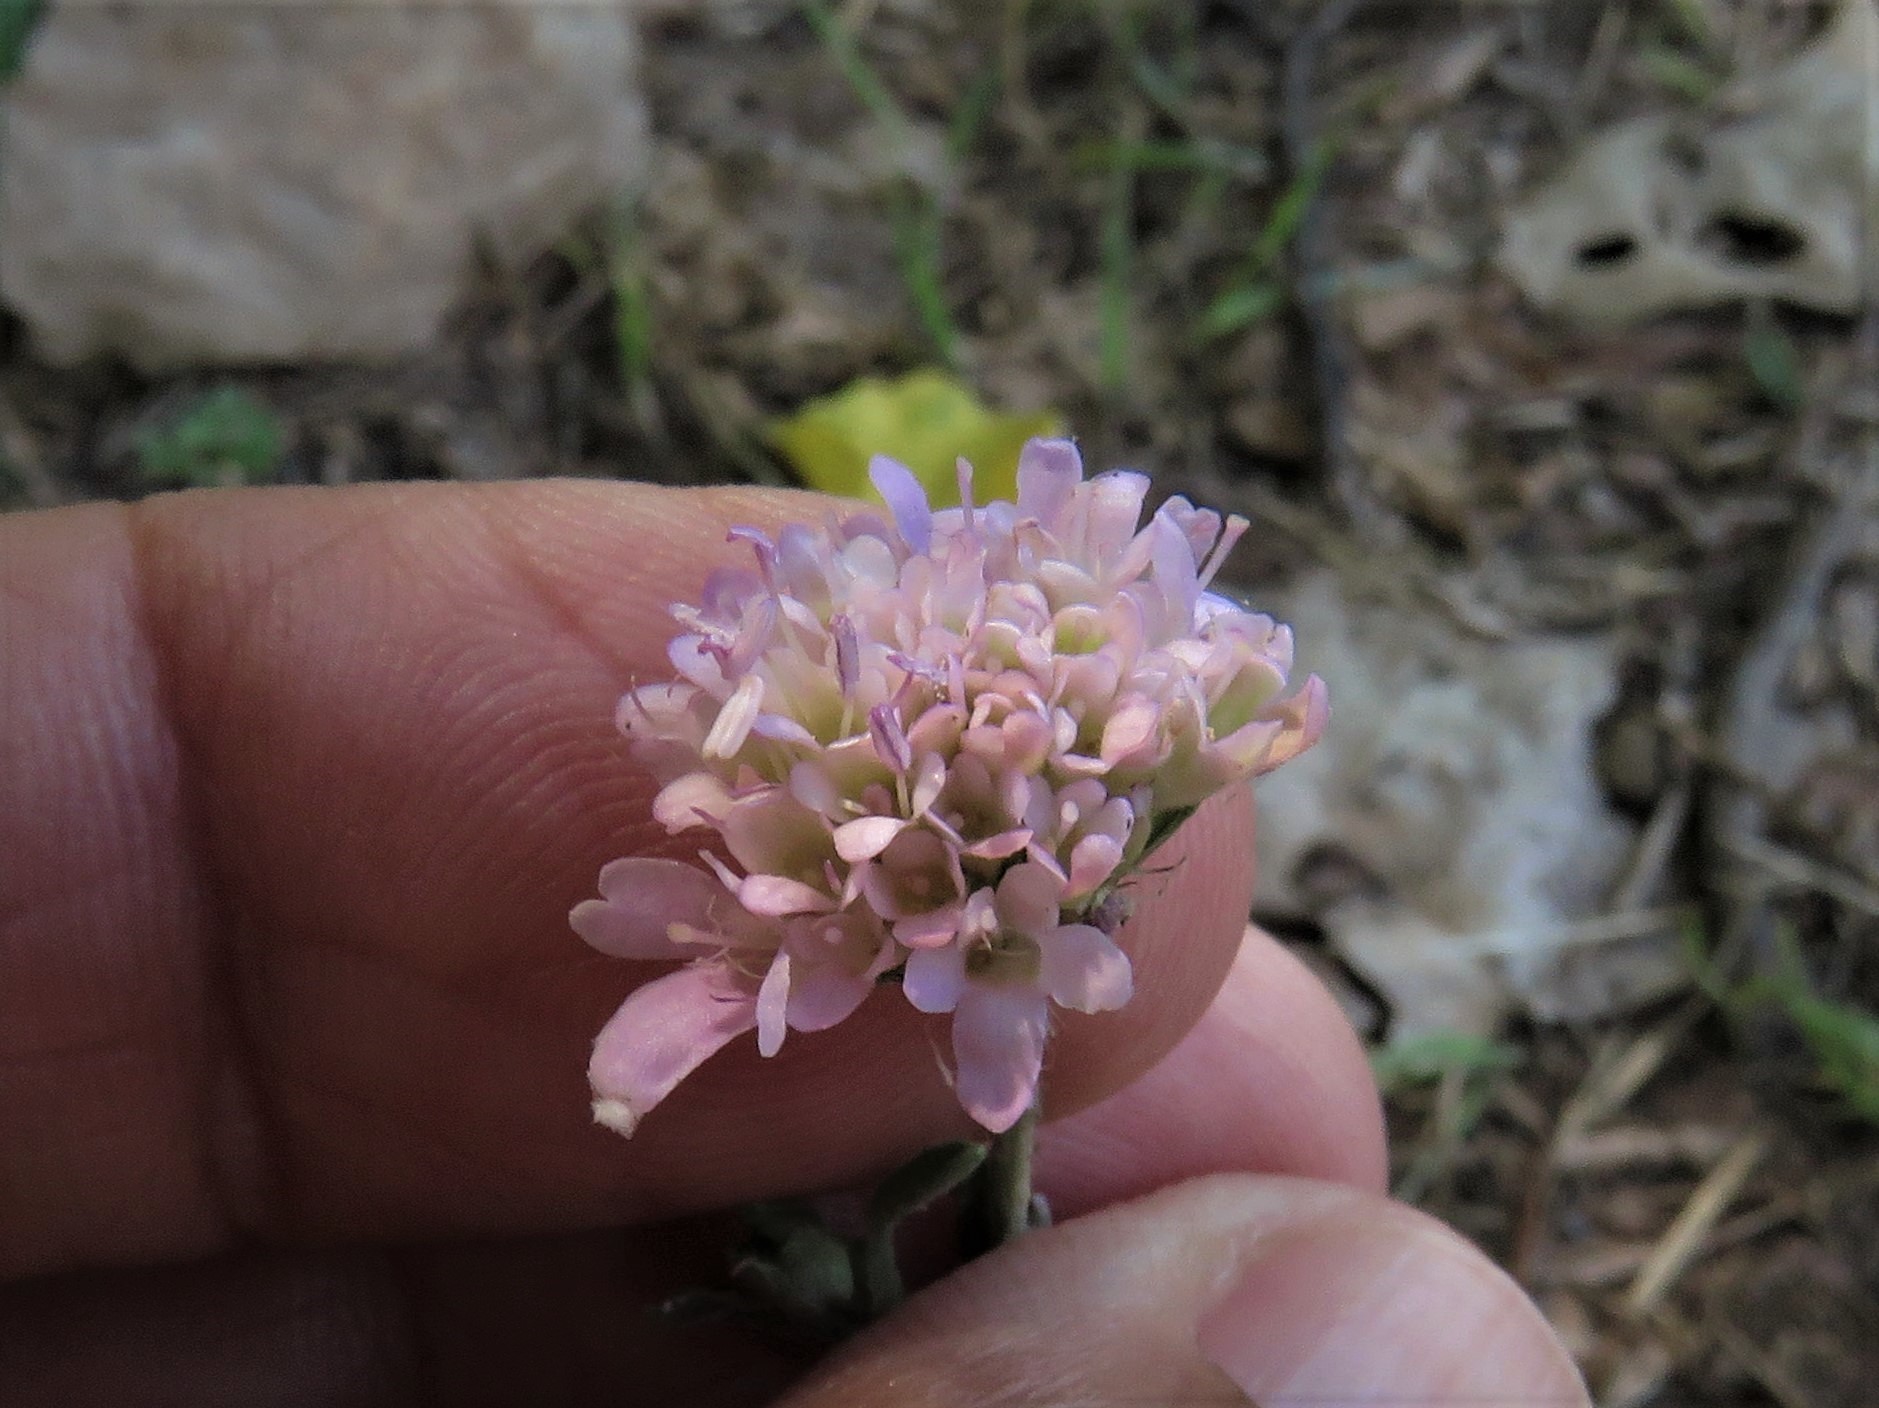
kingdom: Plantae
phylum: Tracheophyta
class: Magnoliopsida
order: Dipsacales
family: Caprifoliaceae
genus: Sixalix
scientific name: Sixalix atropurpurea
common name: Sweet scabious
